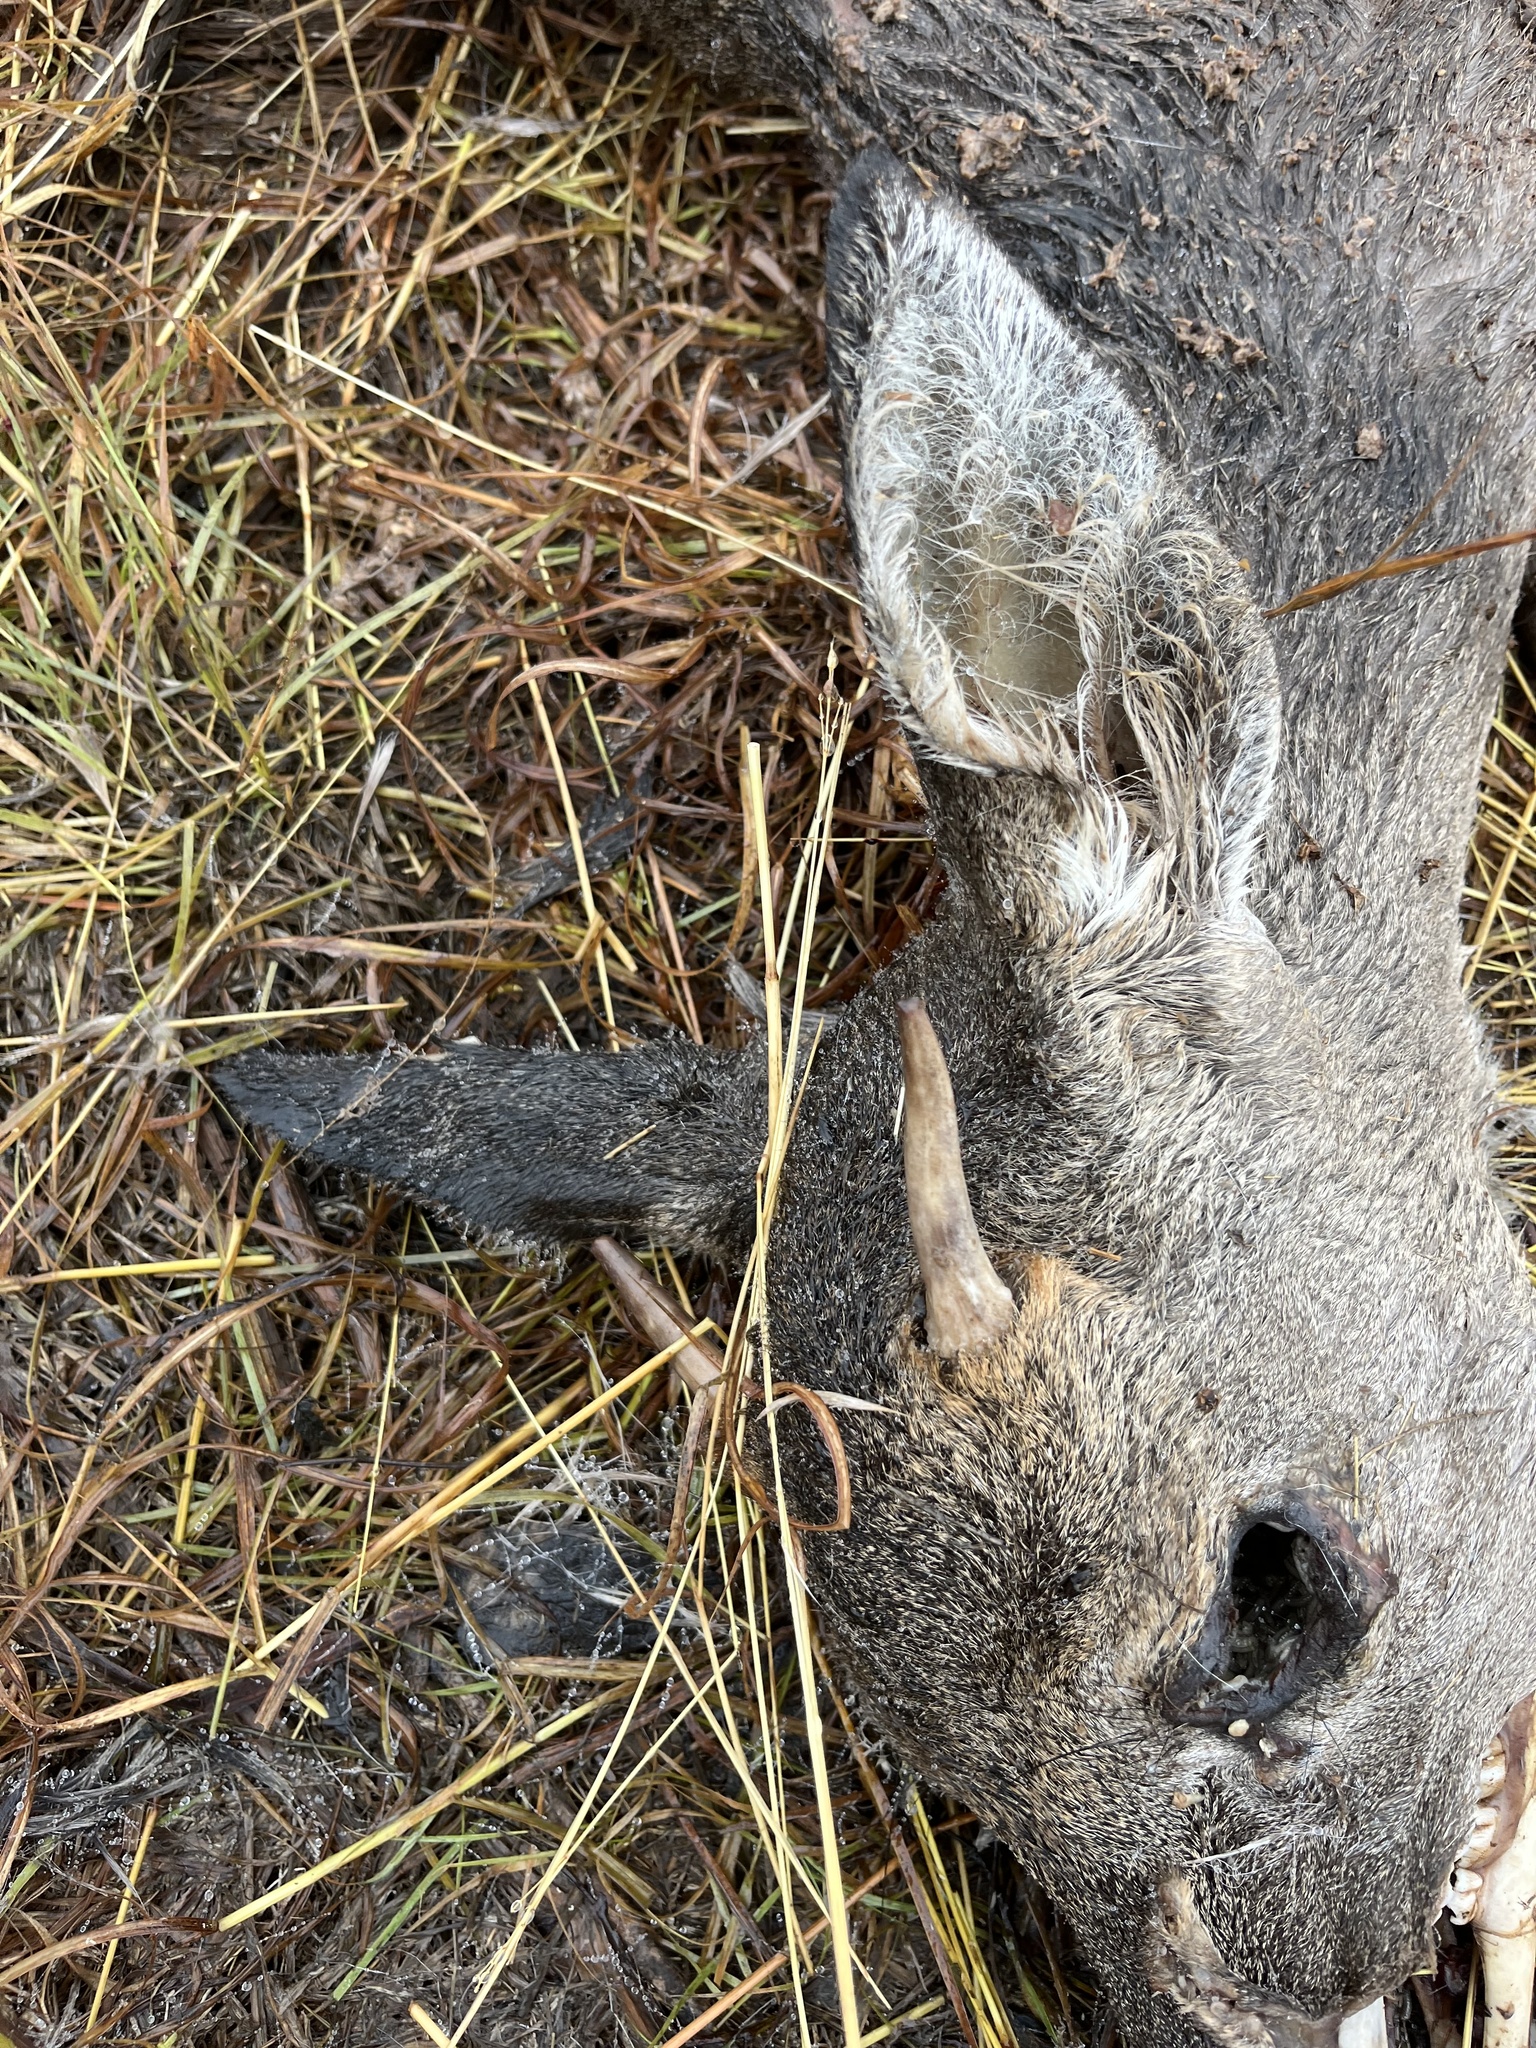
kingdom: Animalia
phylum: Chordata
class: Mammalia
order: Artiodactyla
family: Cervidae
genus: Odocoileus
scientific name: Odocoileus virginianus
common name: White-tailed deer
